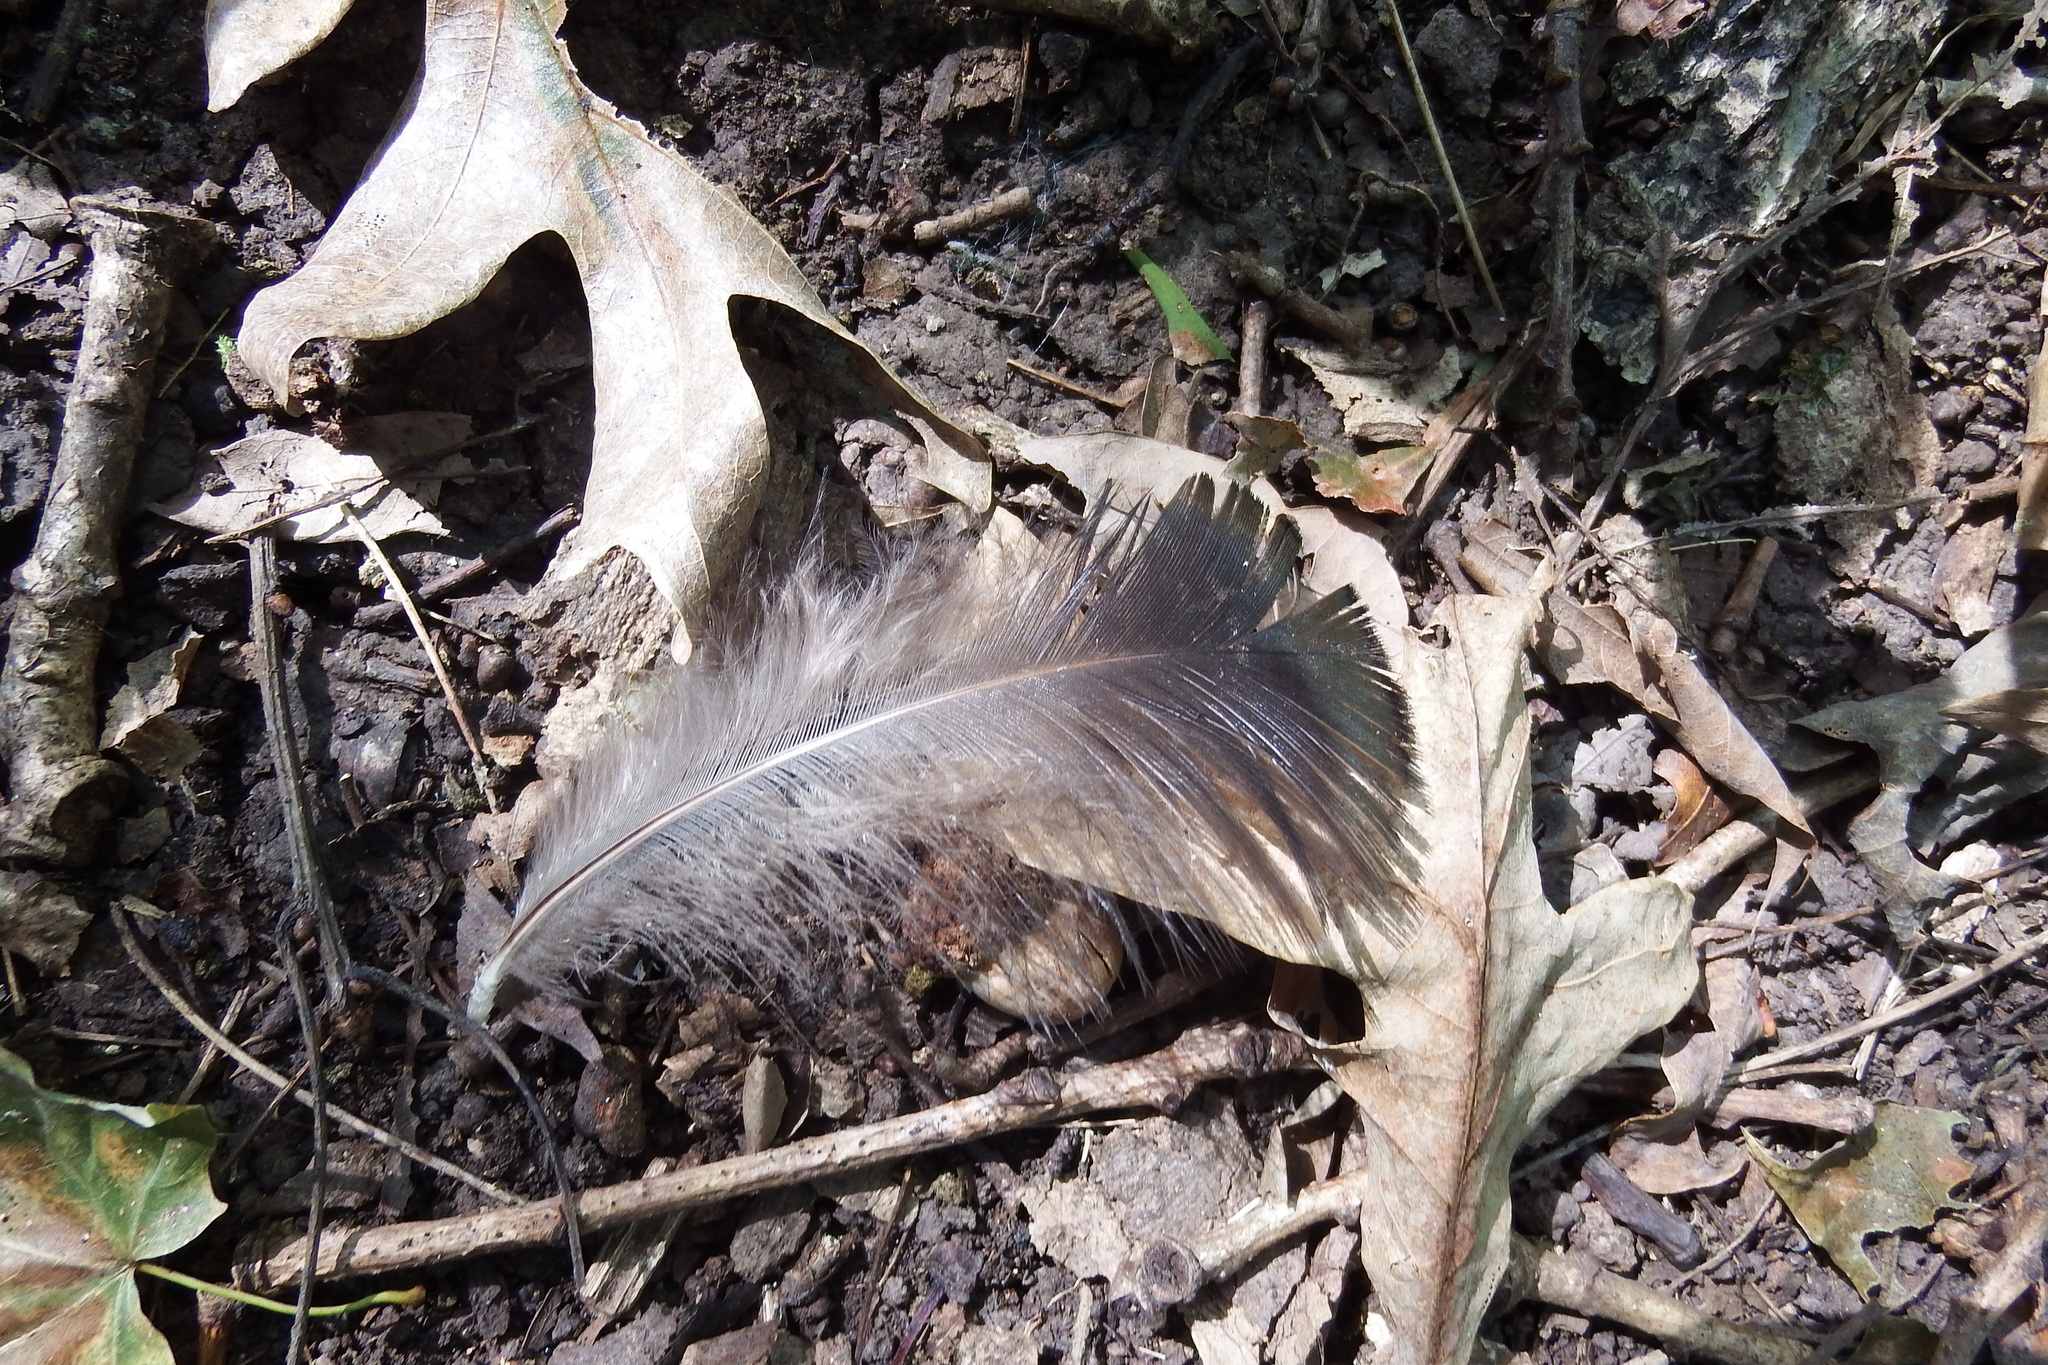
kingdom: Animalia
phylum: Chordata
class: Aves
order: Galliformes
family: Phasianidae
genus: Meleagris
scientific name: Meleagris gallopavo
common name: Wild turkey
